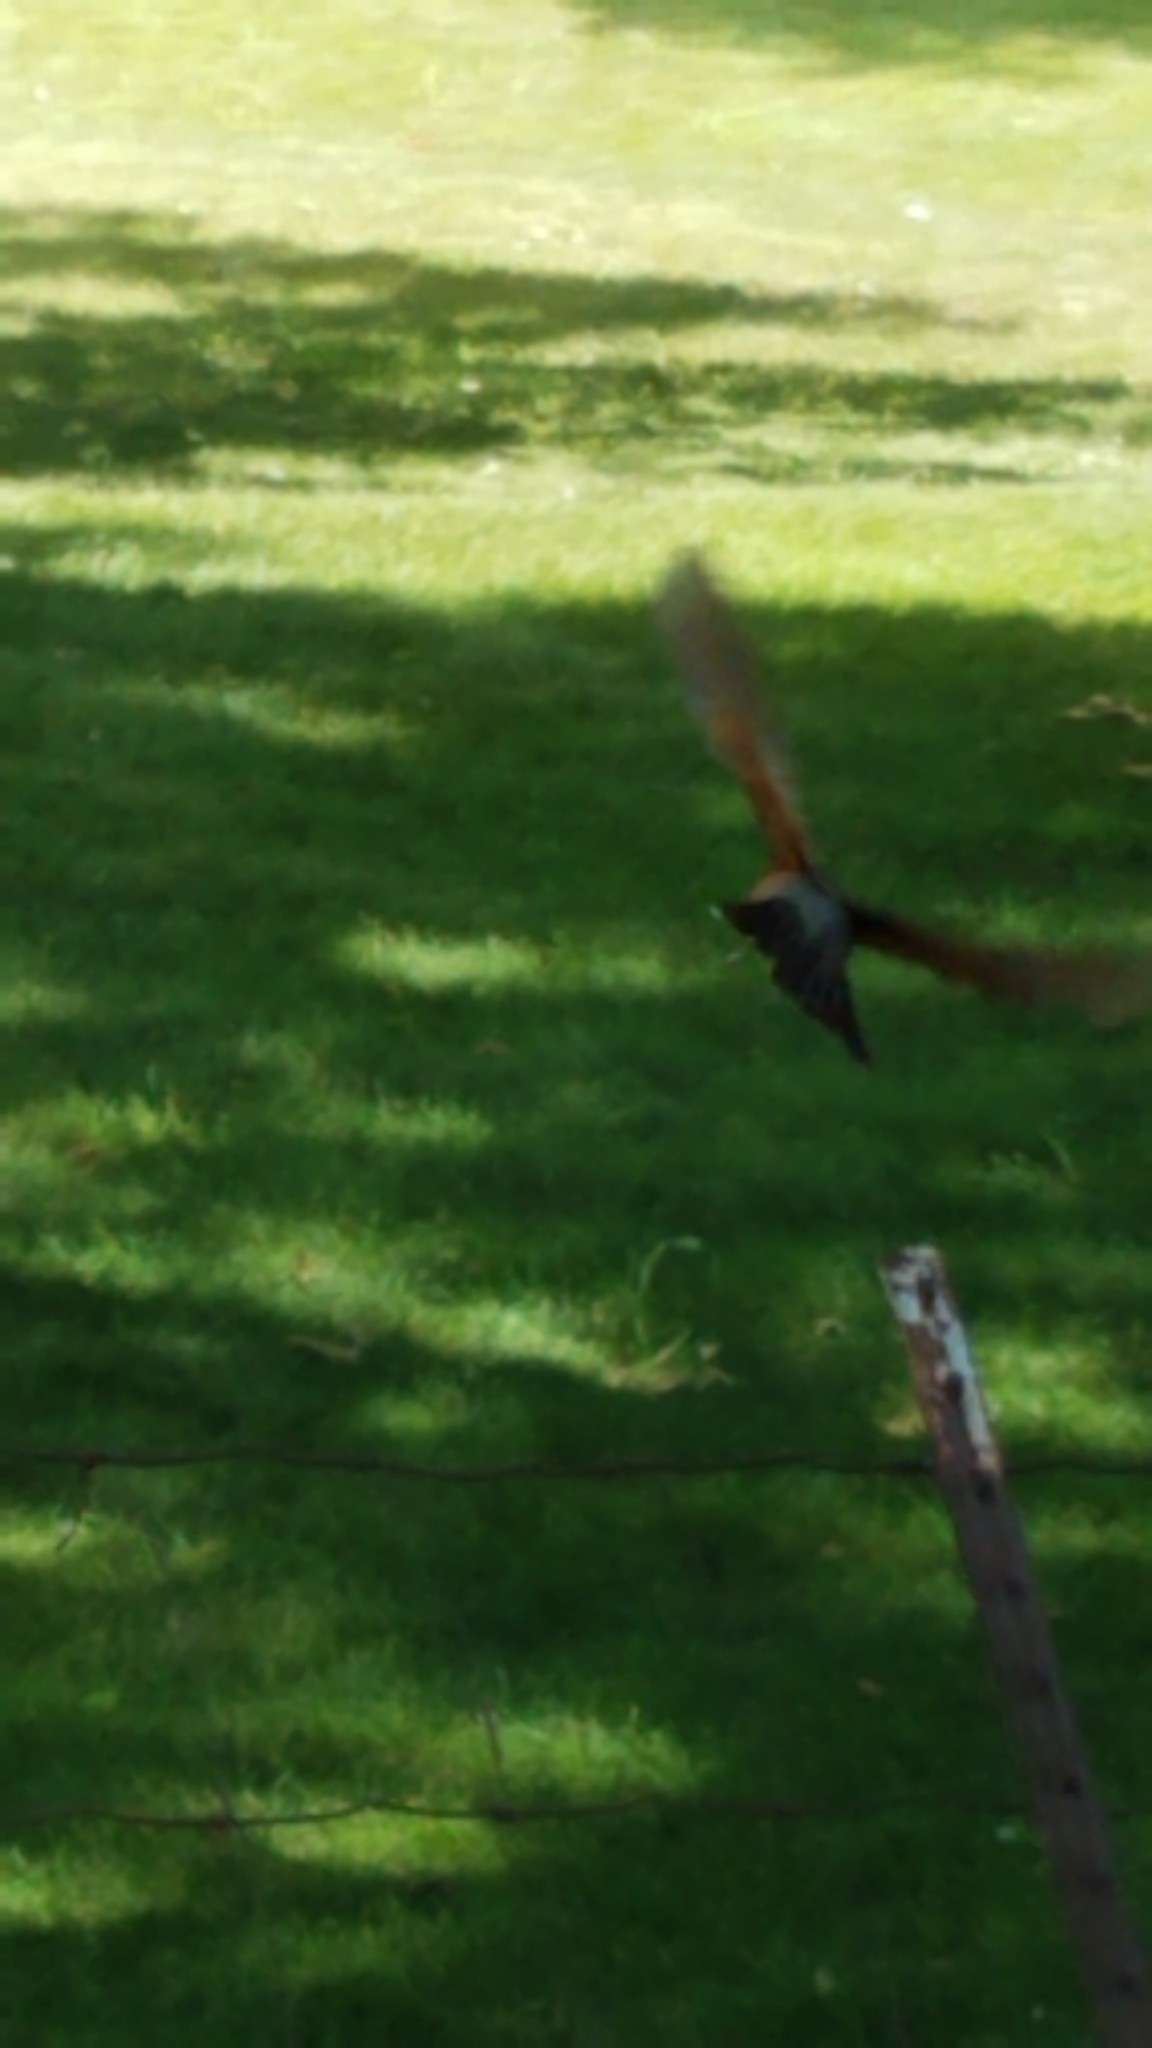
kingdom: Animalia
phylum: Chordata
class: Aves
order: Passeriformes
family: Turdidae
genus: Turdus
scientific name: Turdus migratorius
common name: American robin
